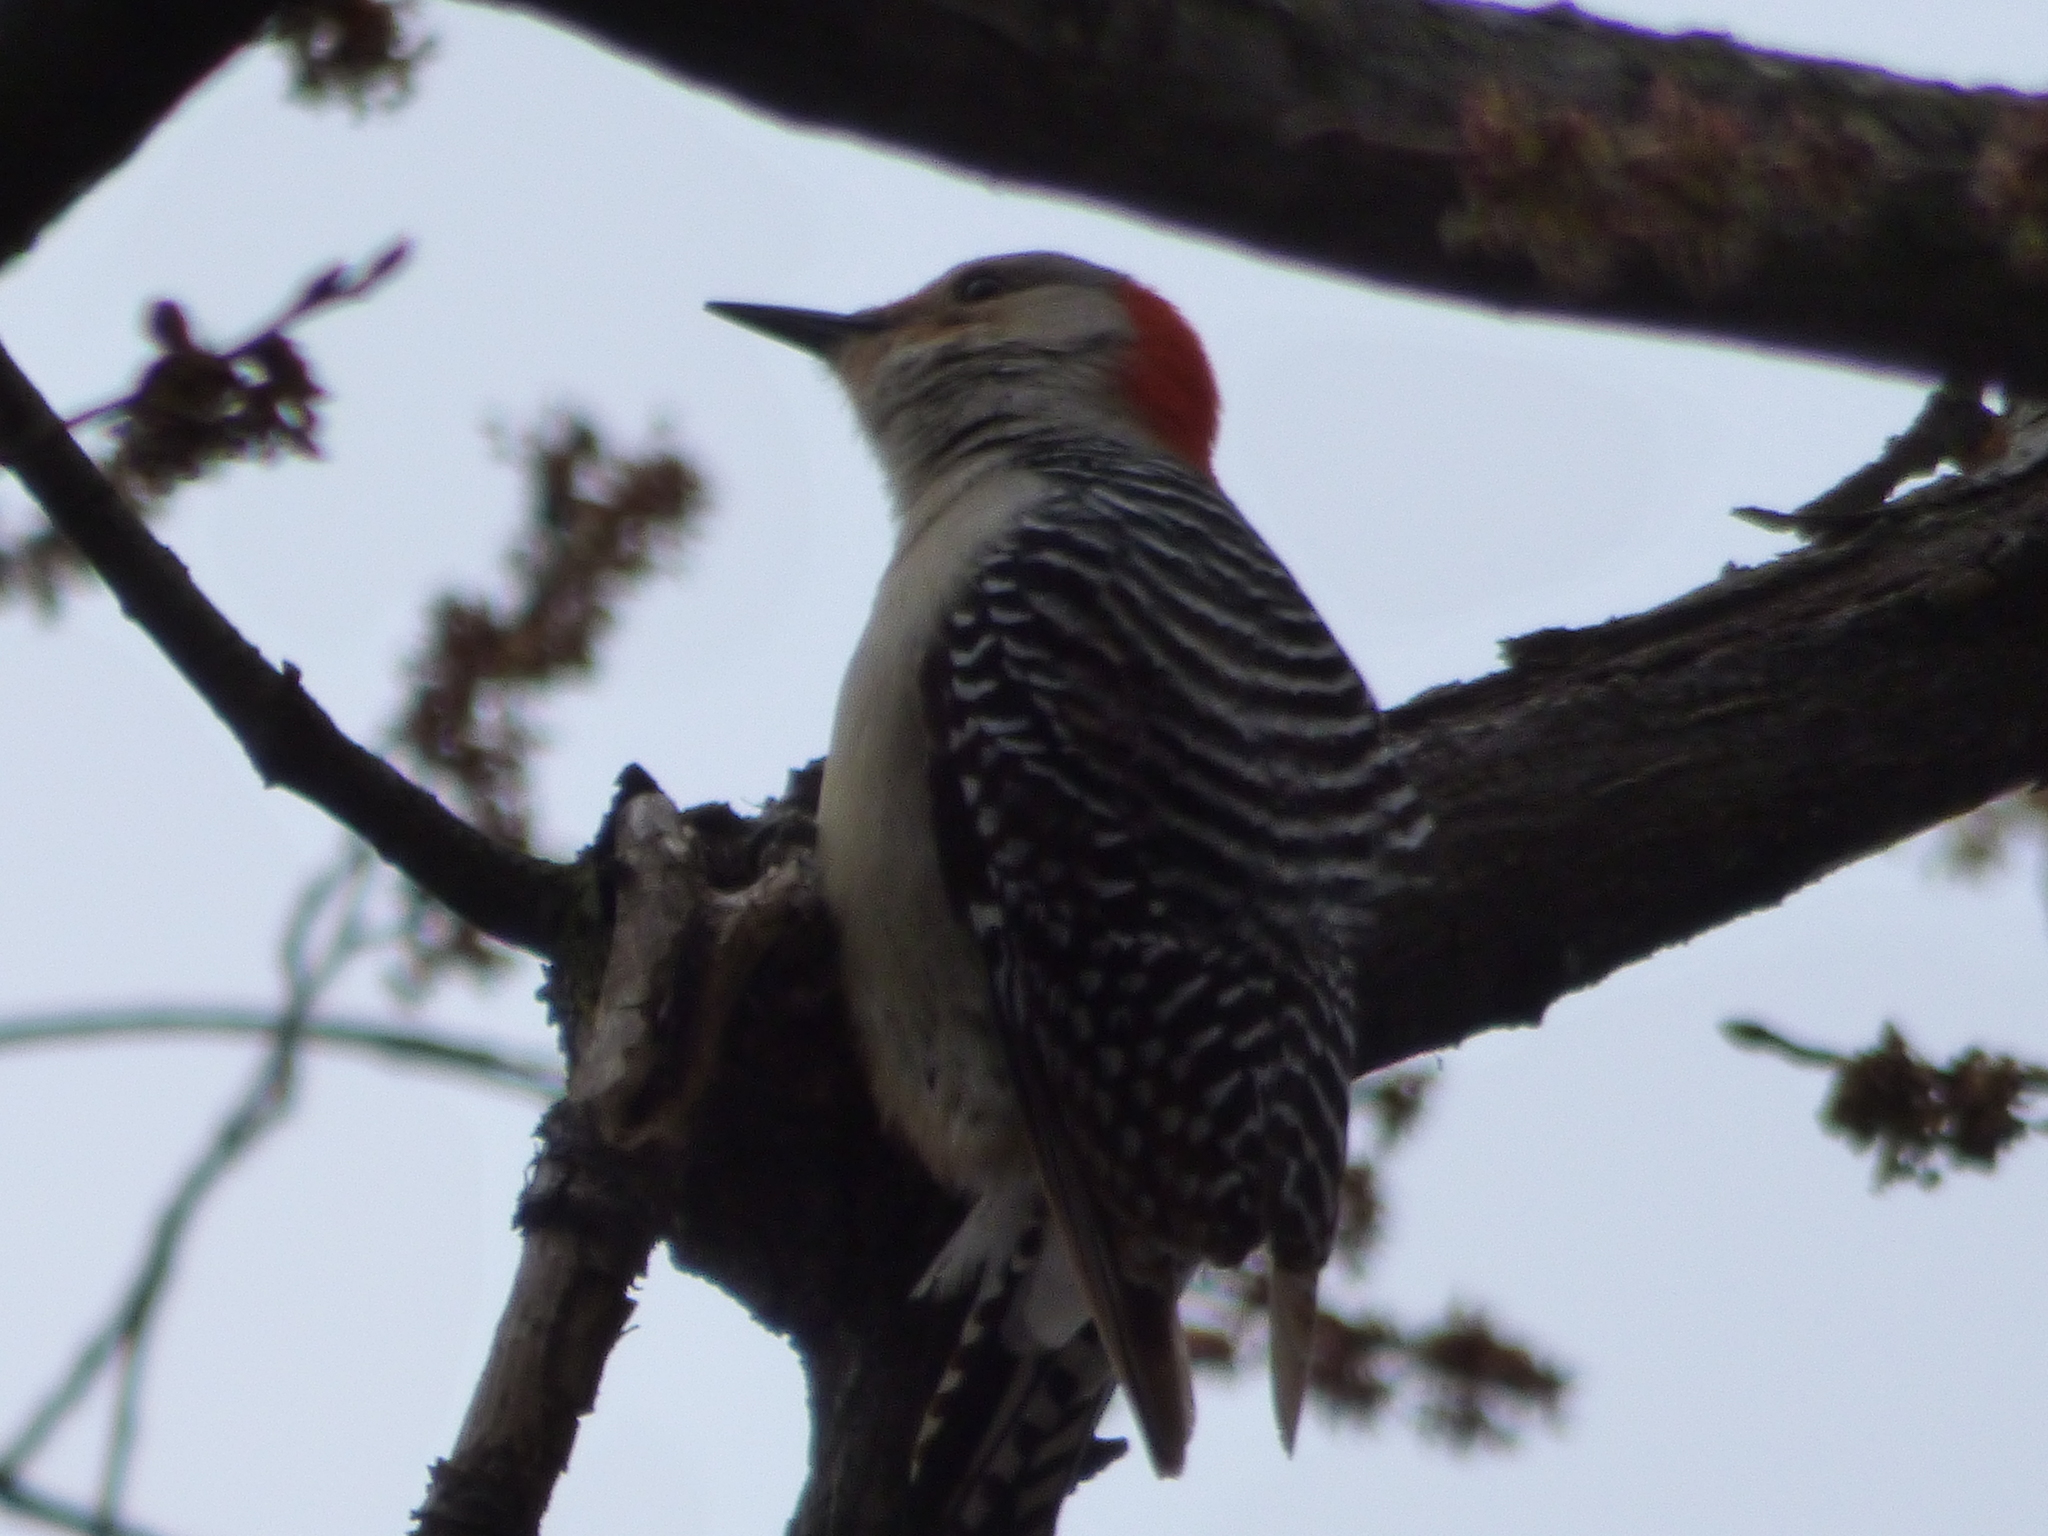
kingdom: Animalia
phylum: Chordata
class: Aves
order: Piciformes
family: Picidae
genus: Melanerpes
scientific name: Melanerpes carolinus
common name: Red-bellied woodpecker
